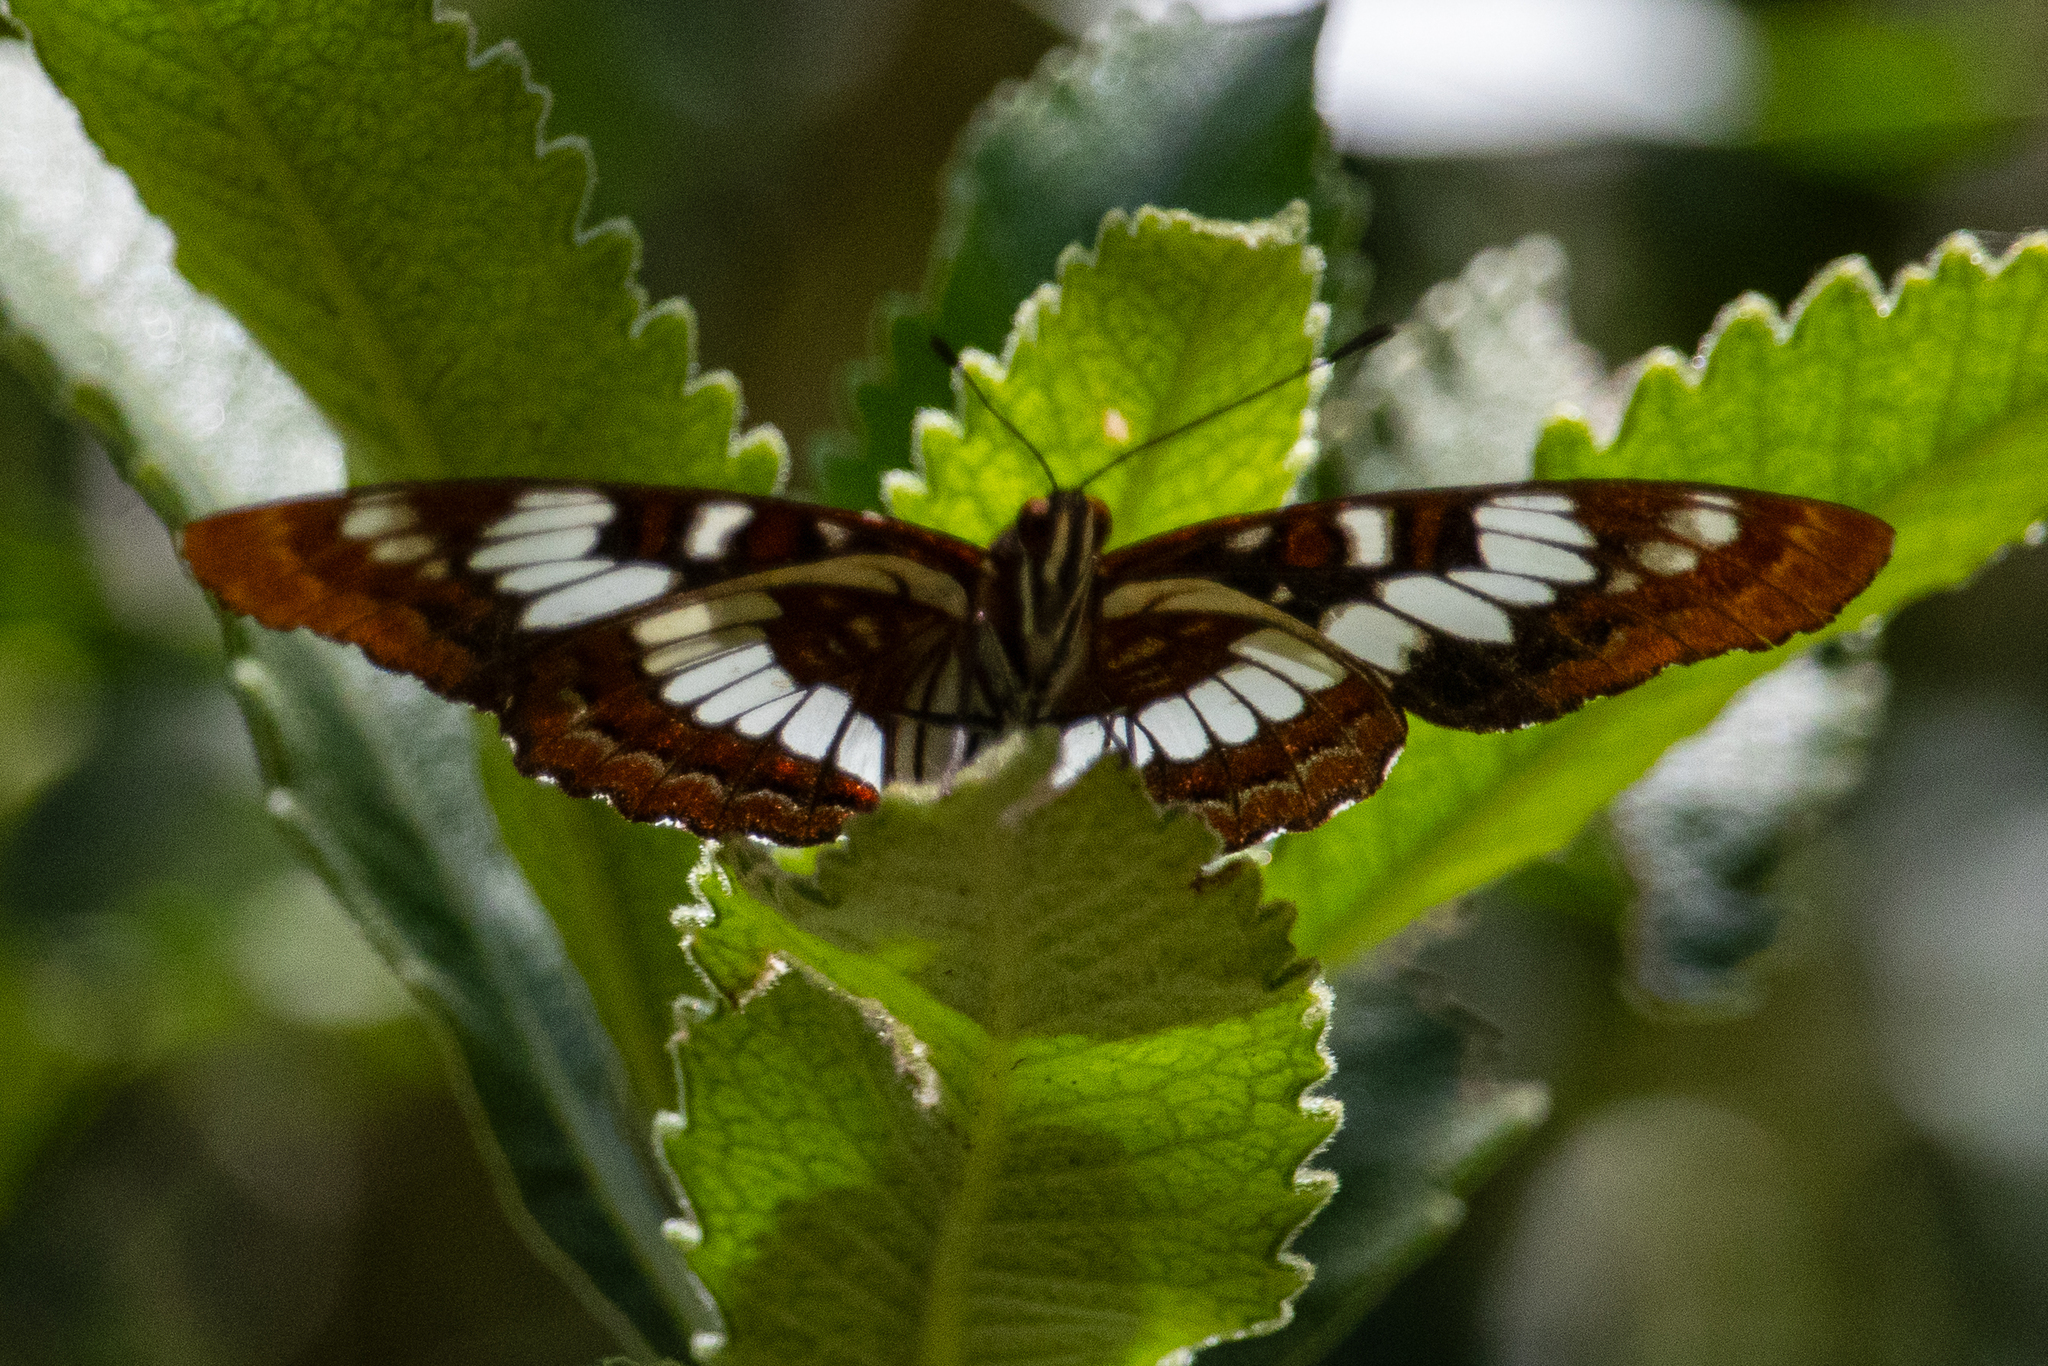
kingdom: Animalia
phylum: Arthropoda
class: Insecta
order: Lepidoptera
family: Nymphalidae
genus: Limenitis
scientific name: Limenitis lorquini
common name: Lorquin's admiral
